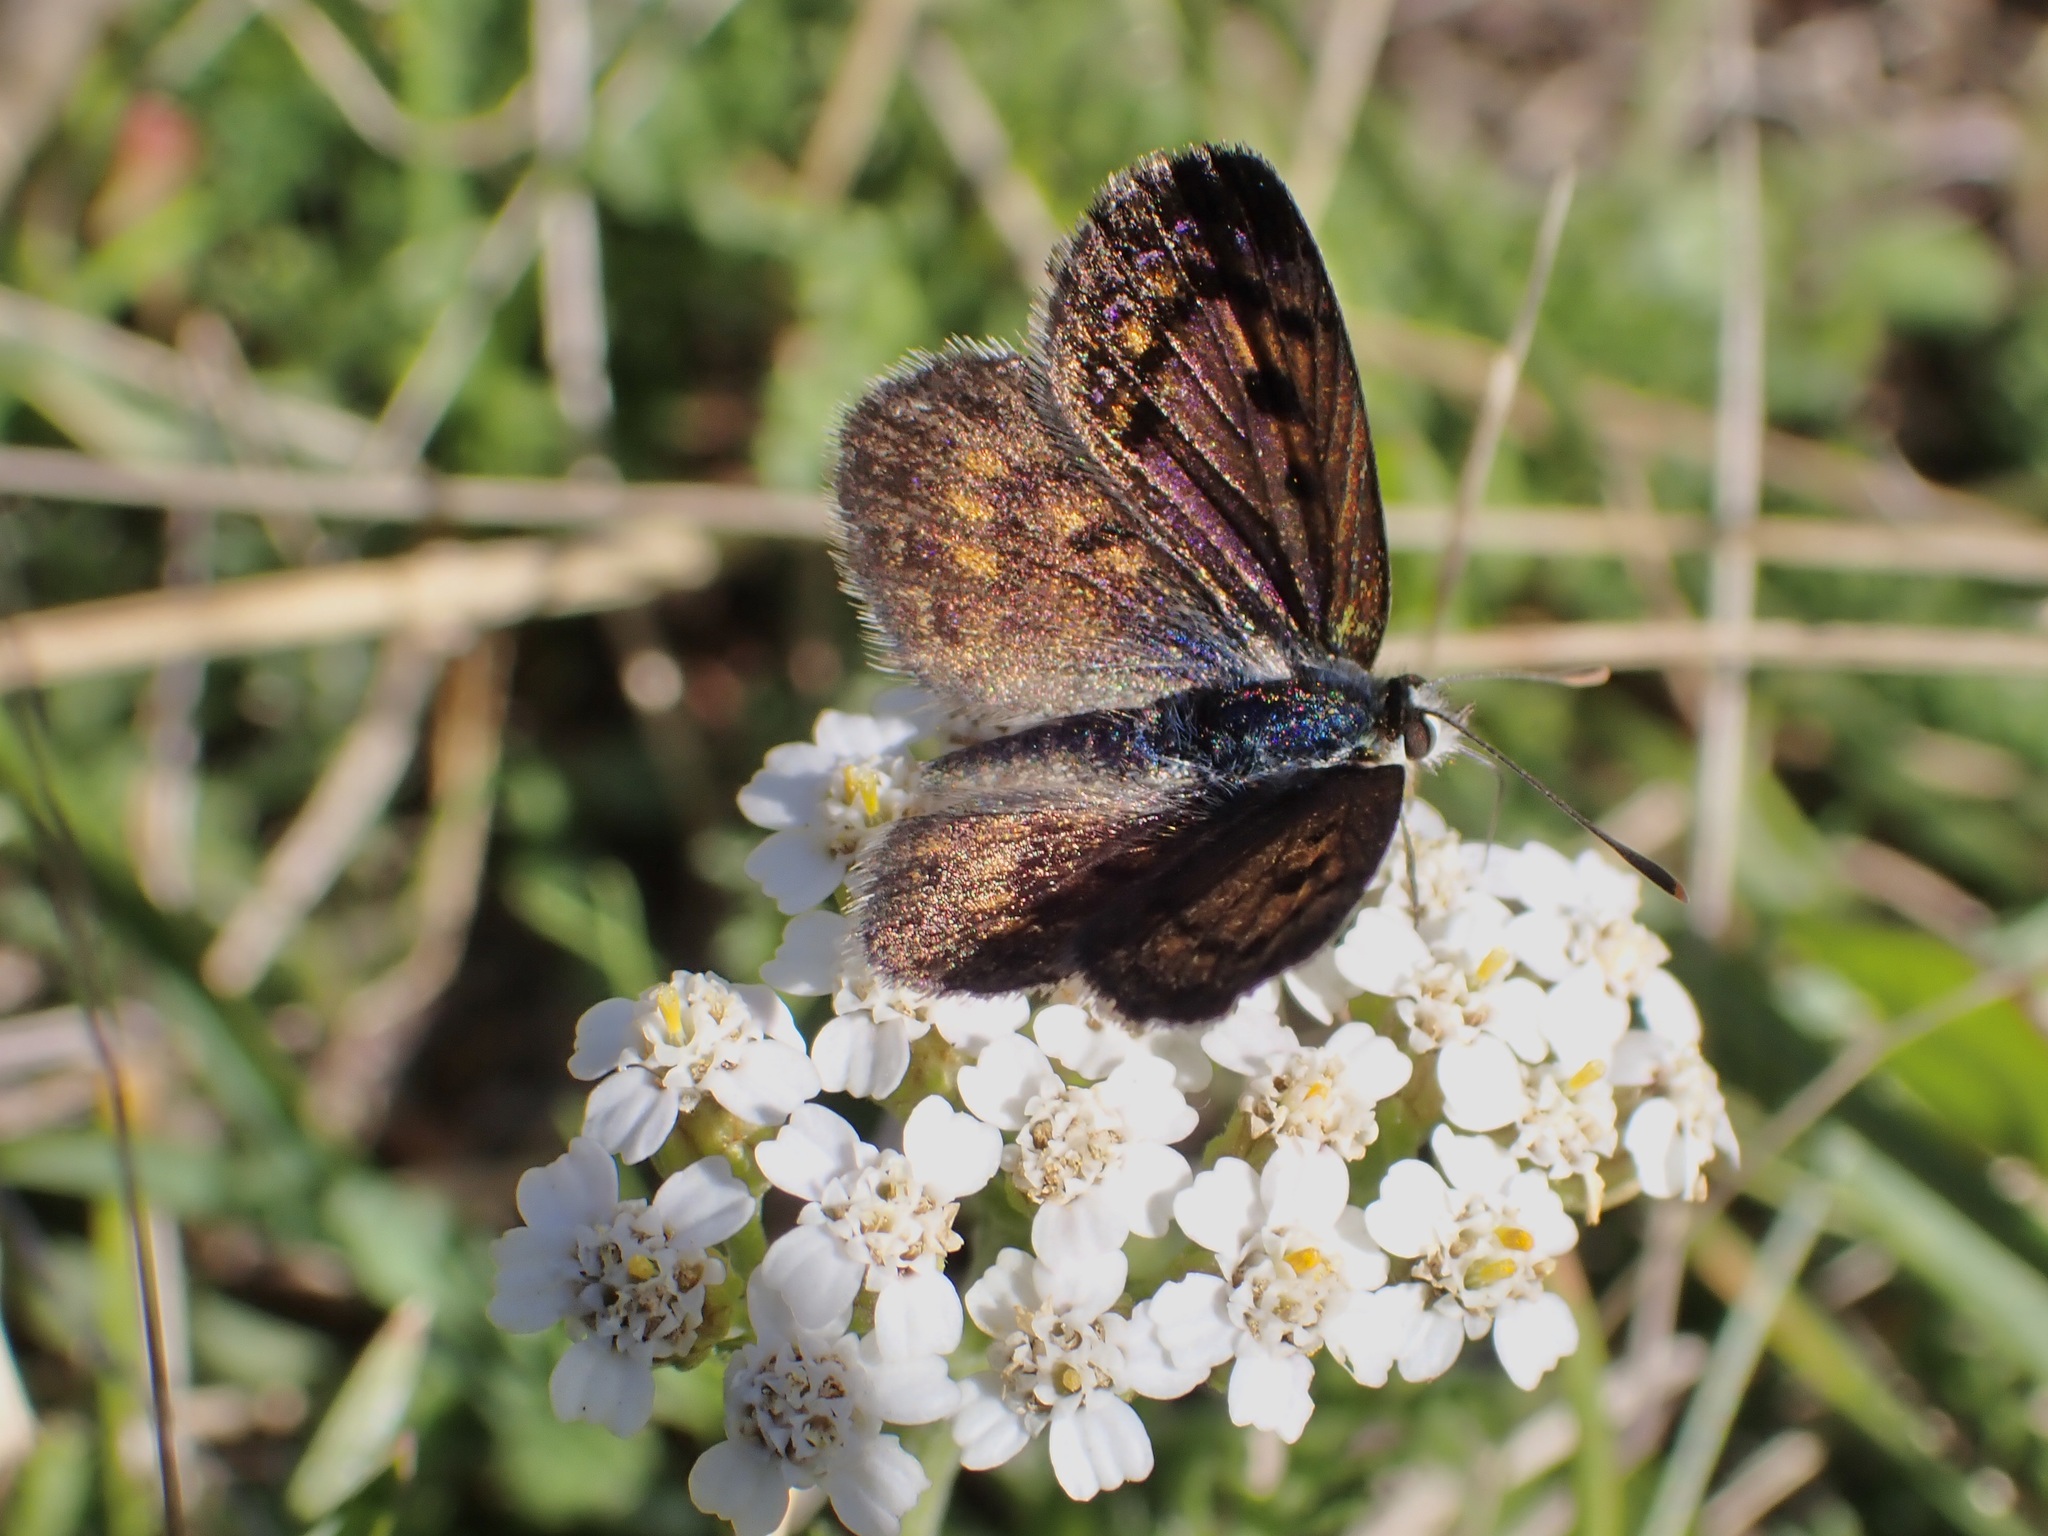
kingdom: Animalia
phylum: Arthropoda
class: Insecta
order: Lepidoptera
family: Lycaenidae
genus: Lycaena
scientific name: Lycaena tama
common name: Canterbury alpine boulder copper
